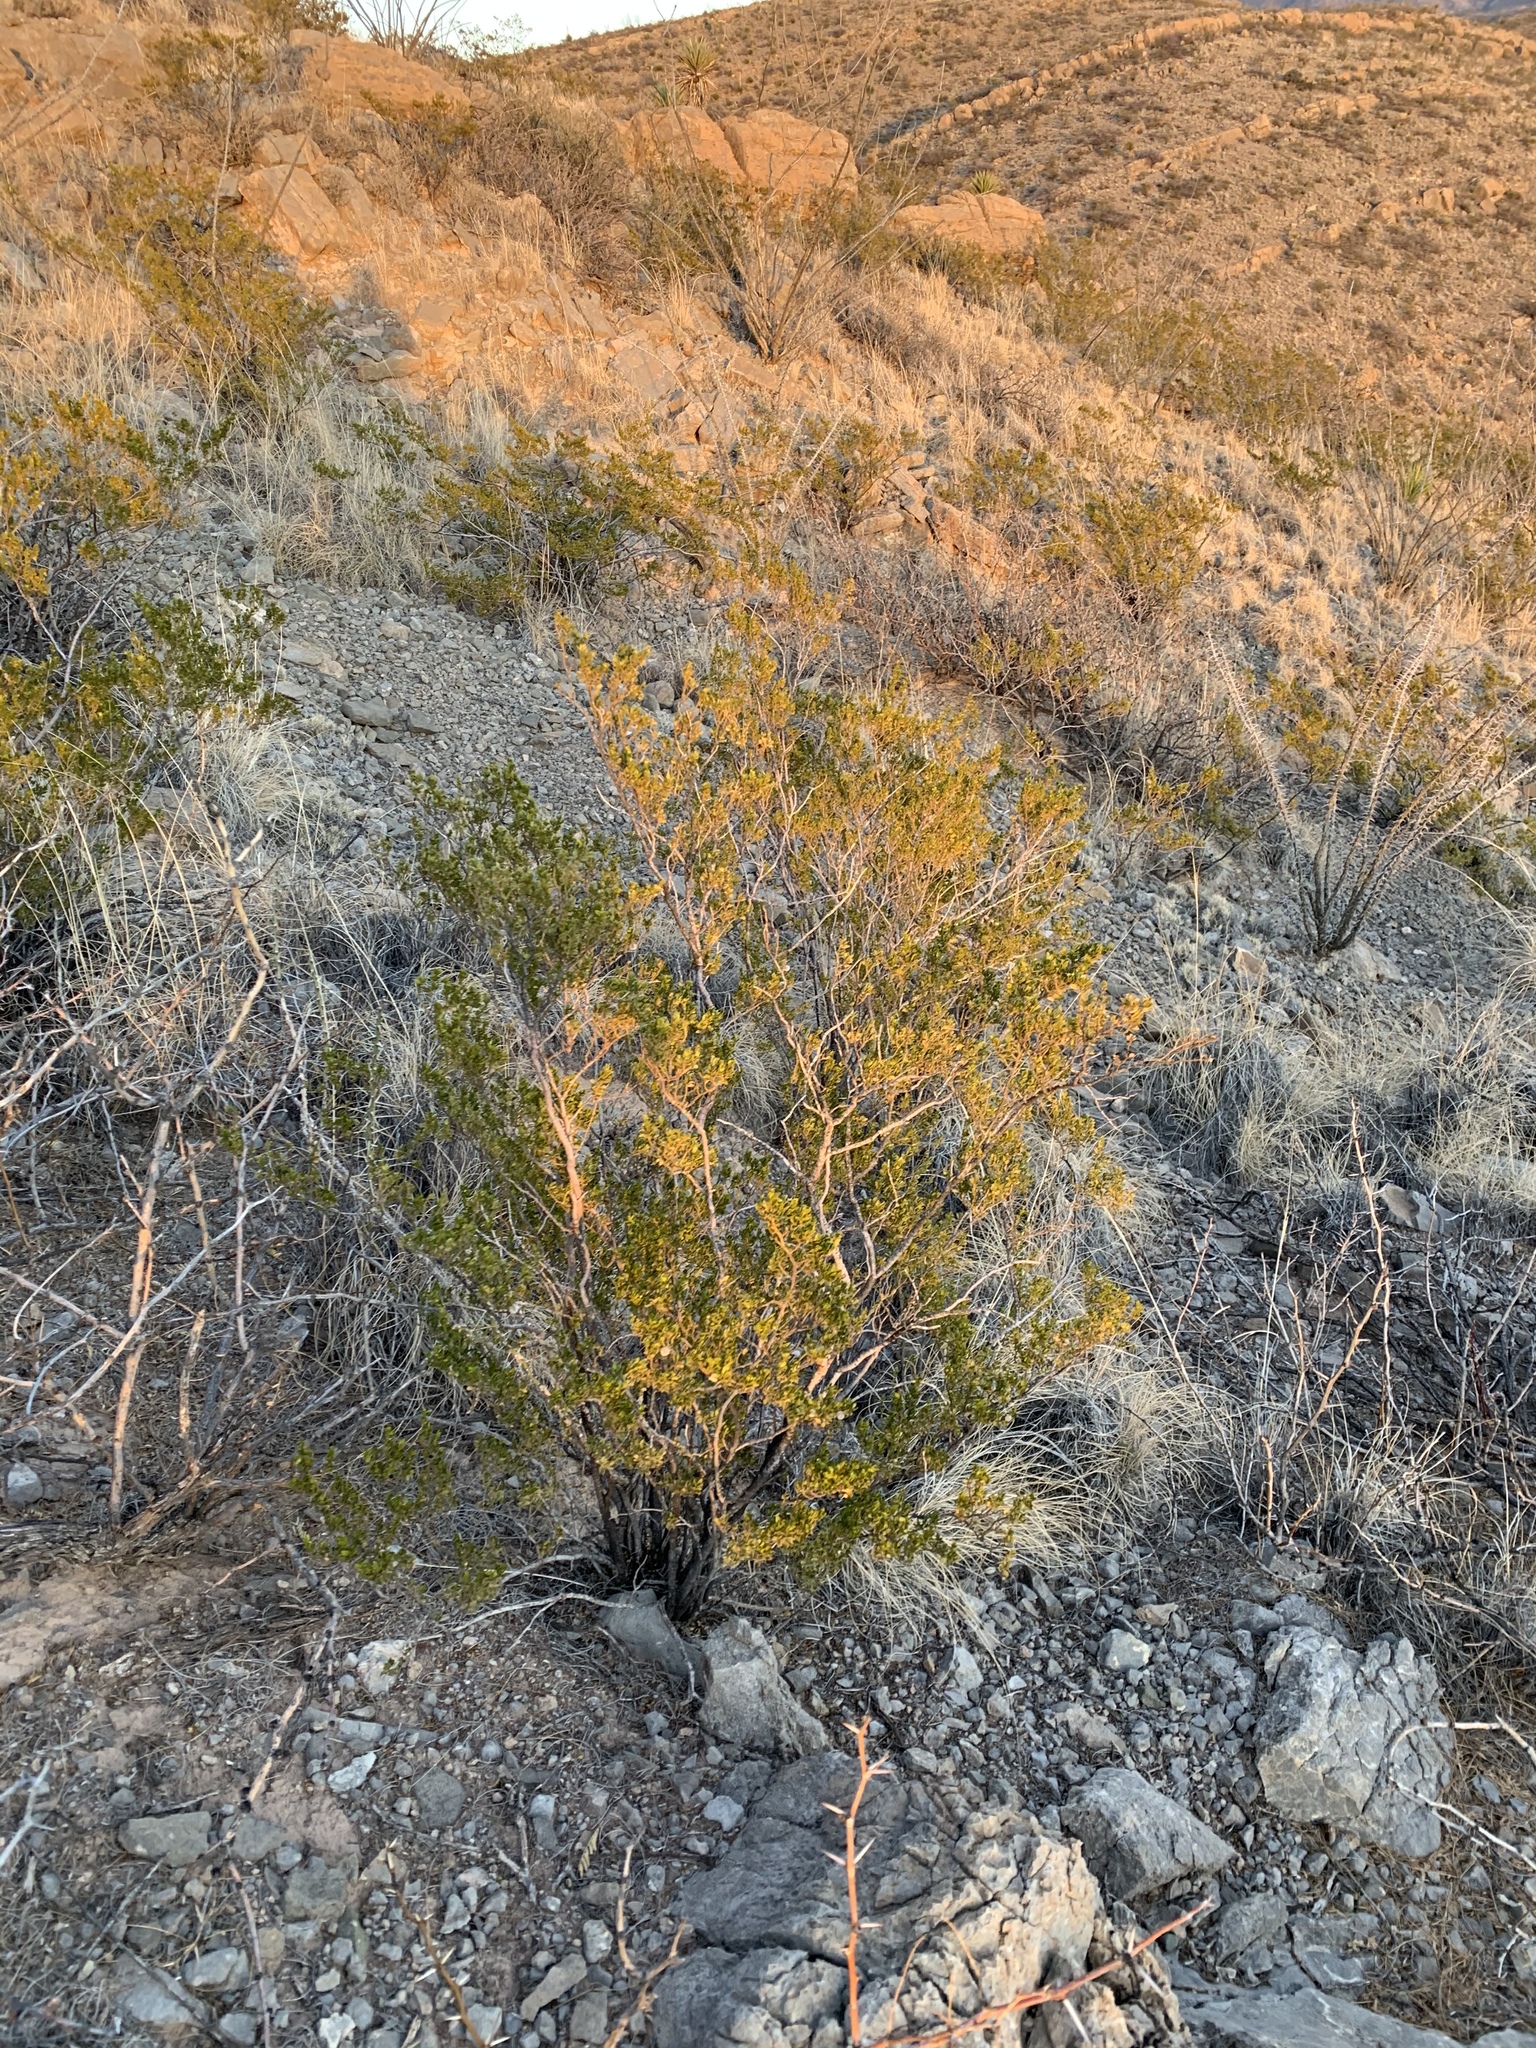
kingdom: Plantae
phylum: Tracheophyta
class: Magnoliopsida
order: Zygophyllales
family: Zygophyllaceae
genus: Larrea
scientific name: Larrea tridentata
